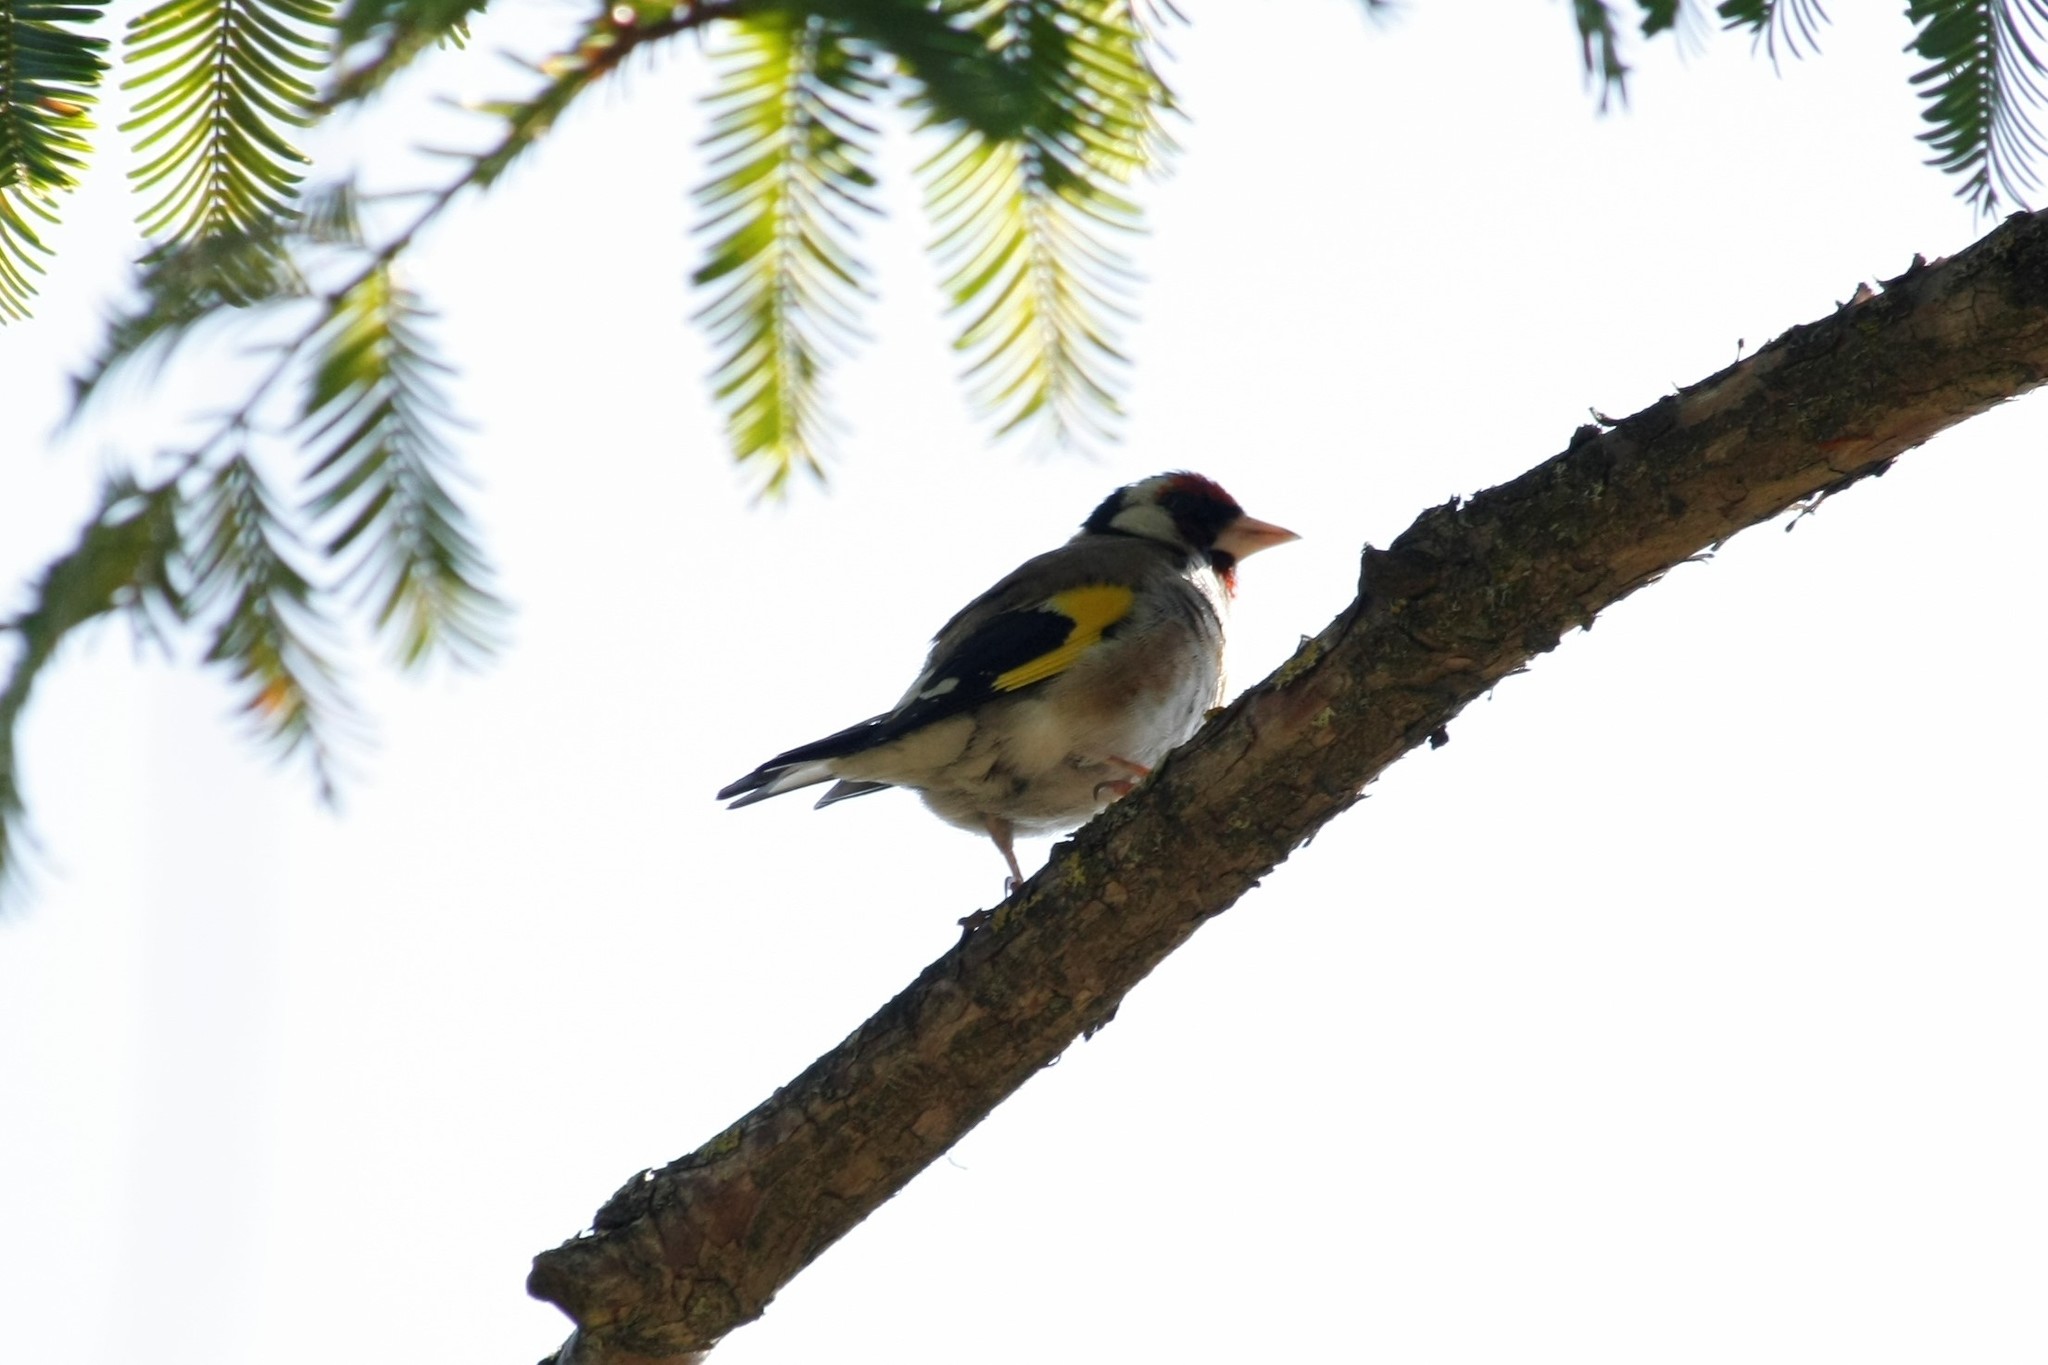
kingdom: Animalia
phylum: Chordata
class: Aves
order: Passeriformes
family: Fringillidae
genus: Carduelis
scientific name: Carduelis carduelis
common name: European goldfinch
